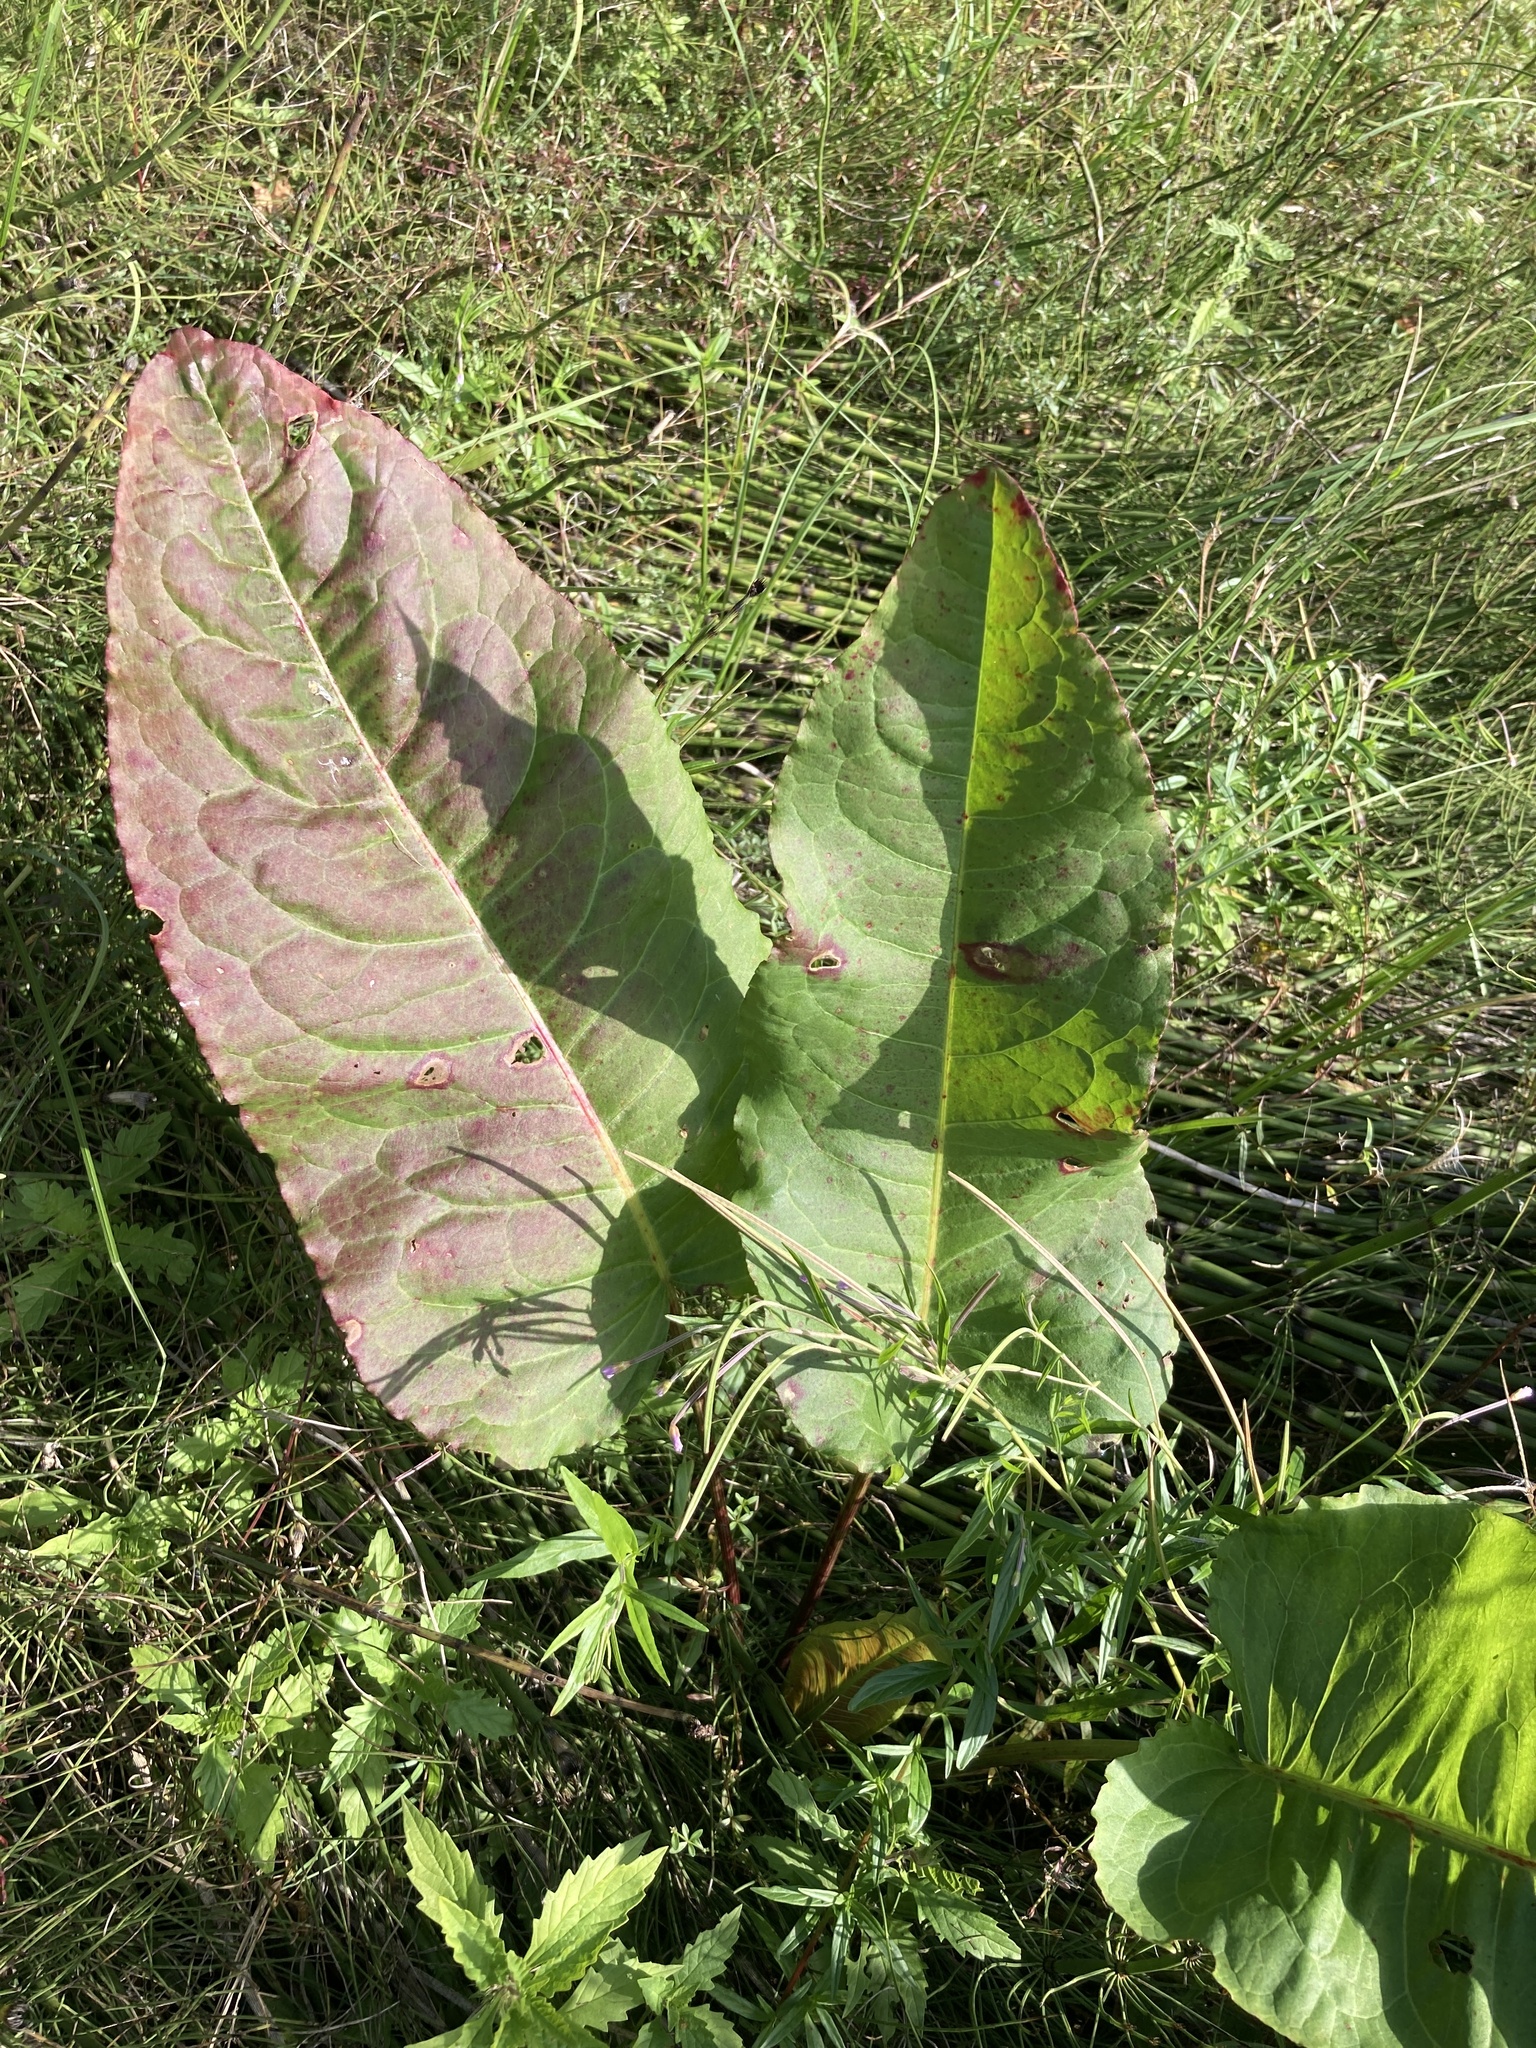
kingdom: Plantae
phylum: Tracheophyta
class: Magnoliopsida
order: Caryophyllales
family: Polygonaceae
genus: Rumex
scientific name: Rumex aquaticus
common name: Scottish dock
